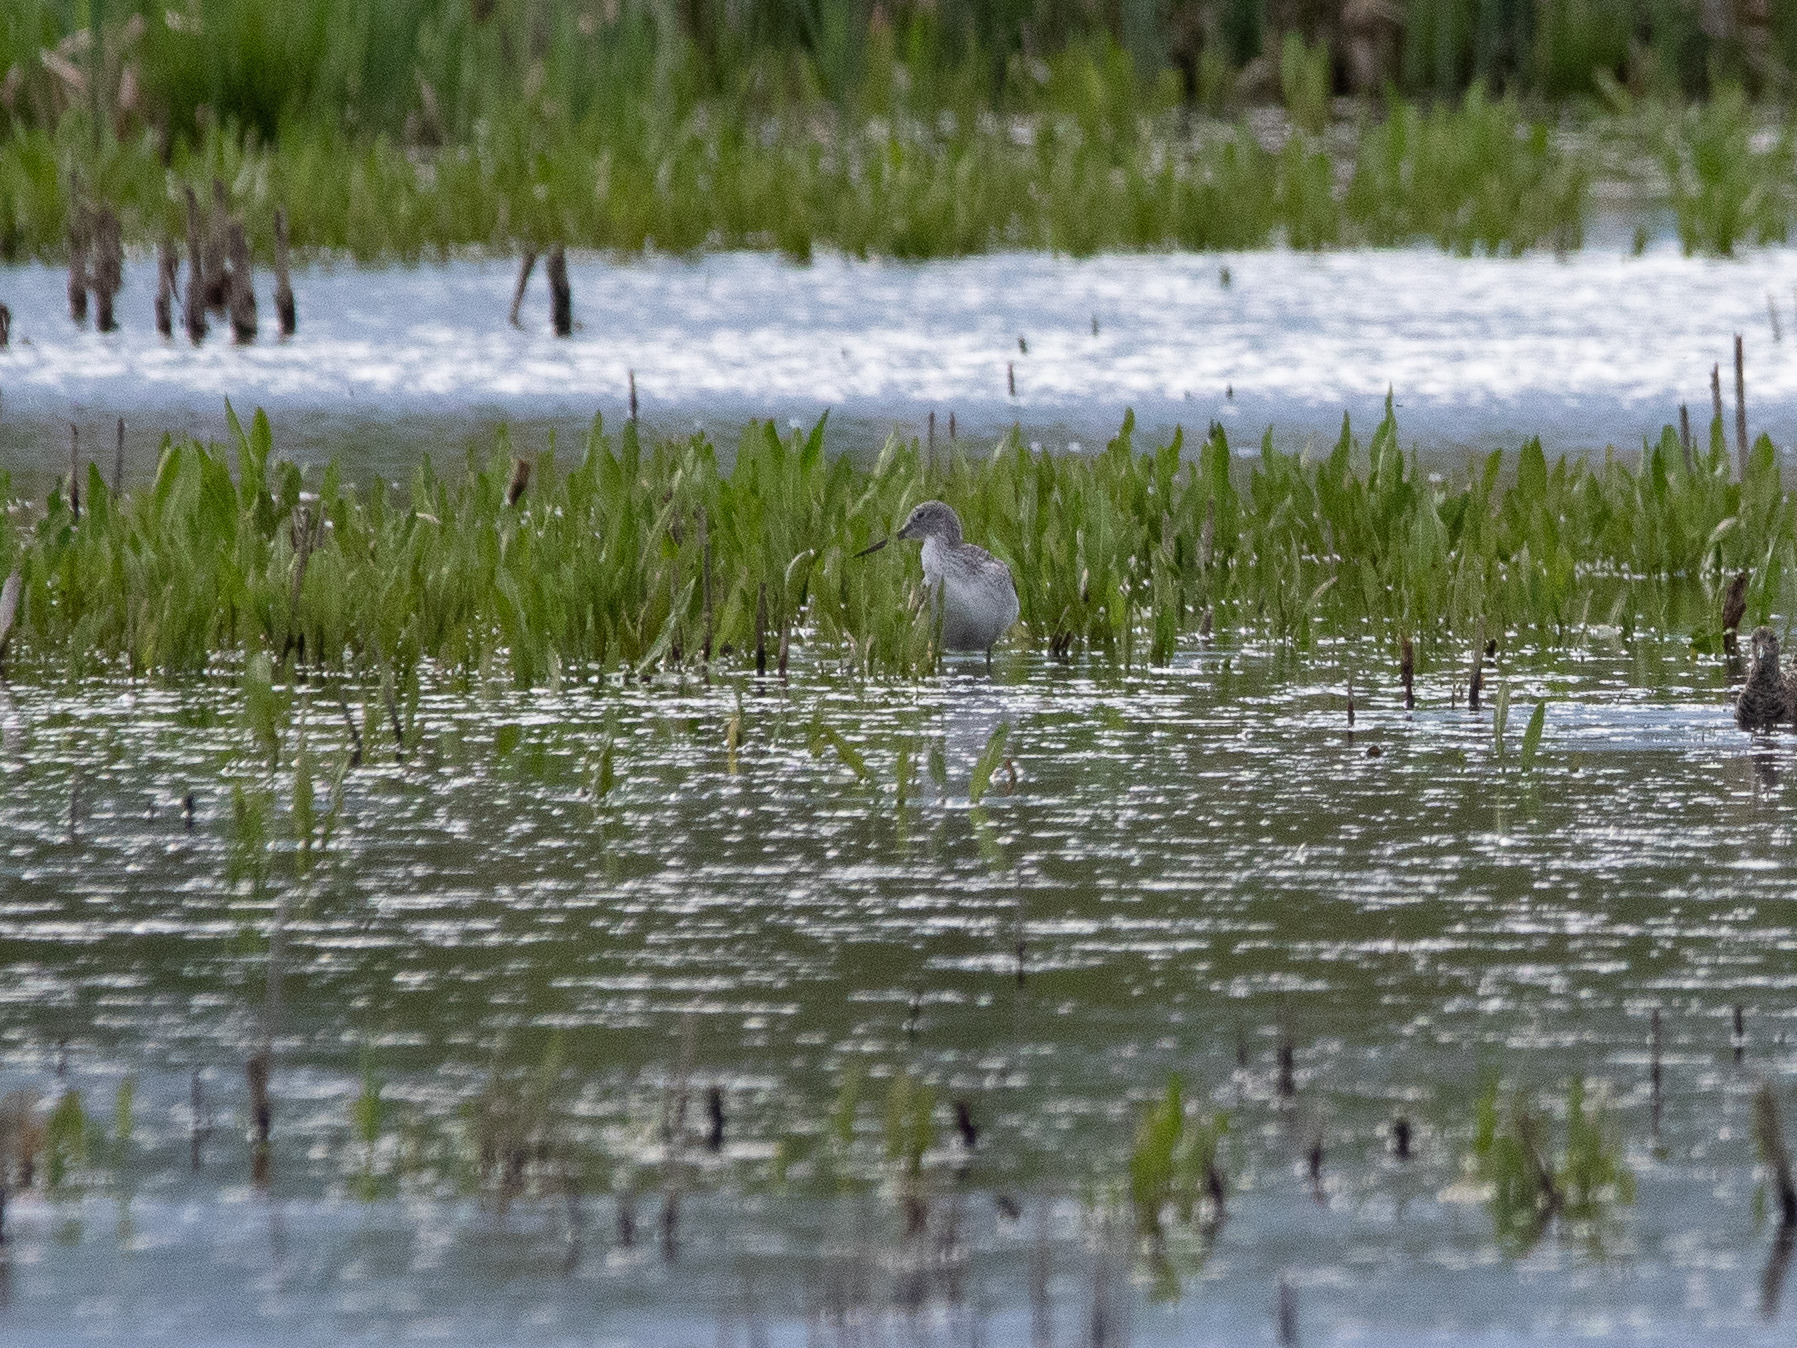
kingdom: Animalia
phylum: Chordata
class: Aves
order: Charadriiformes
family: Scolopacidae
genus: Tringa
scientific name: Tringa nebularia
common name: Common greenshank
